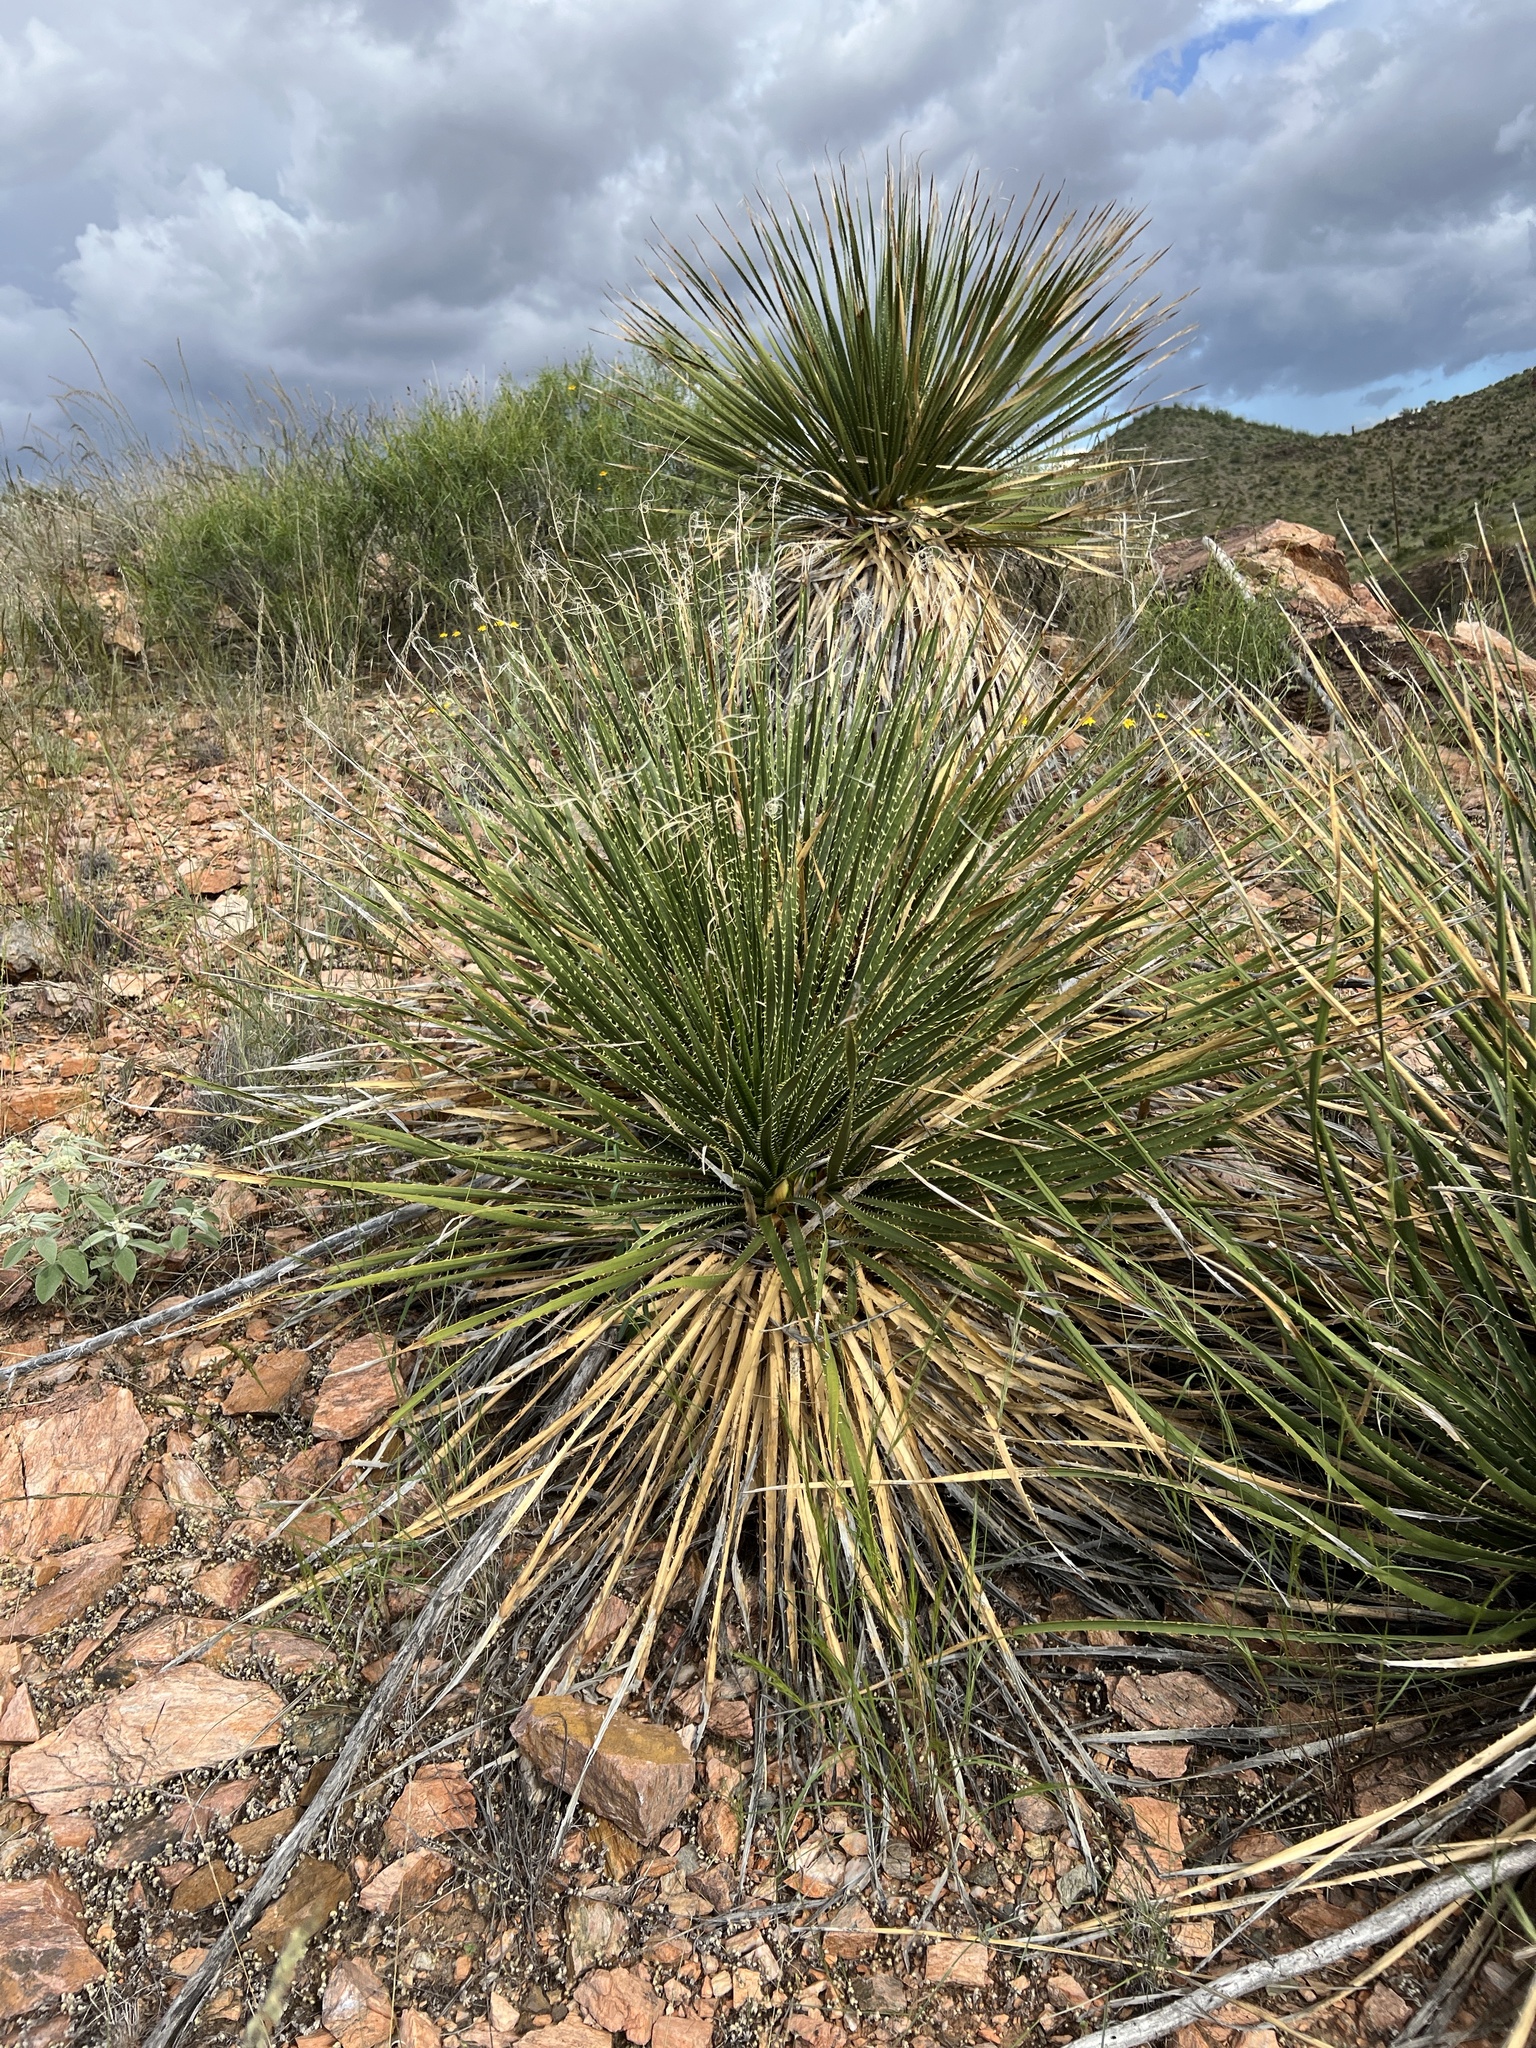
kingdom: Plantae
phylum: Tracheophyta
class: Liliopsida
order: Asparagales
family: Asparagaceae
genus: Dasylirion
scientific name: Dasylirion leiophyllum
